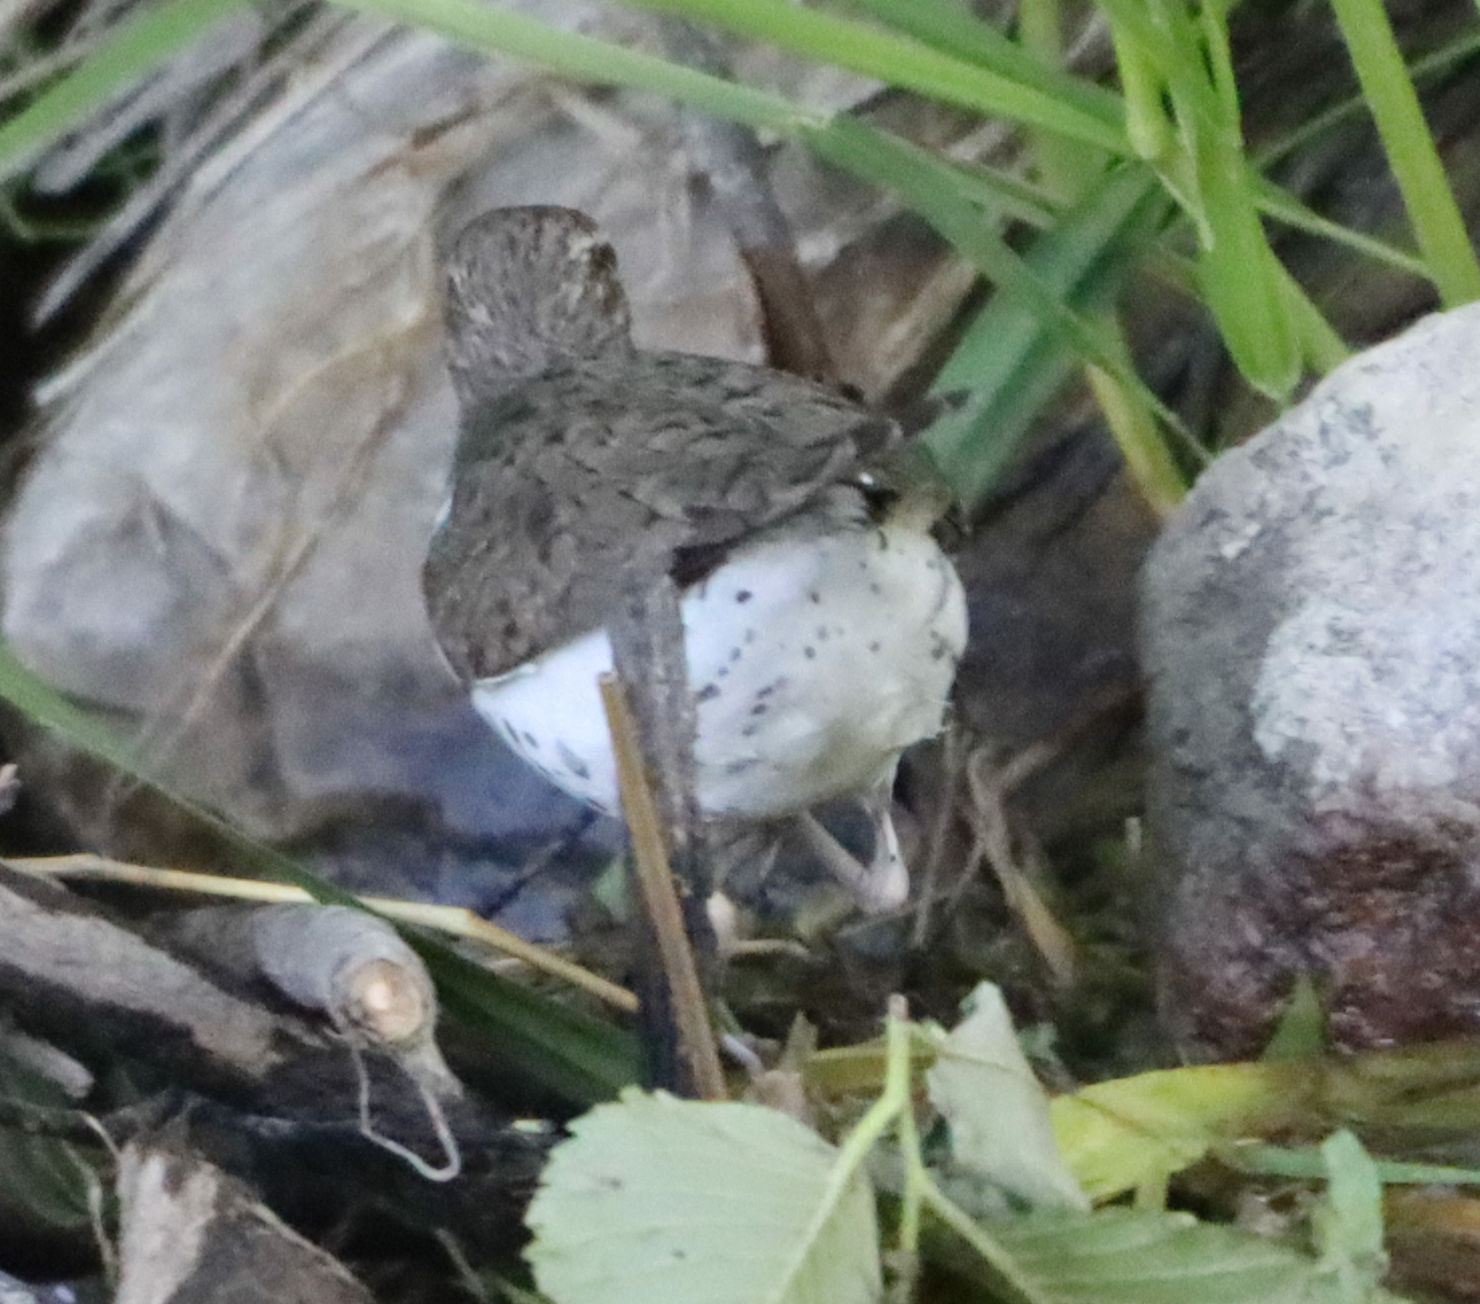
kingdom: Animalia
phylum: Chordata
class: Aves
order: Charadriiformes
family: Scolopacidae
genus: Actitis
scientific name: Actitis macularius
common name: Spotted sandpiper
